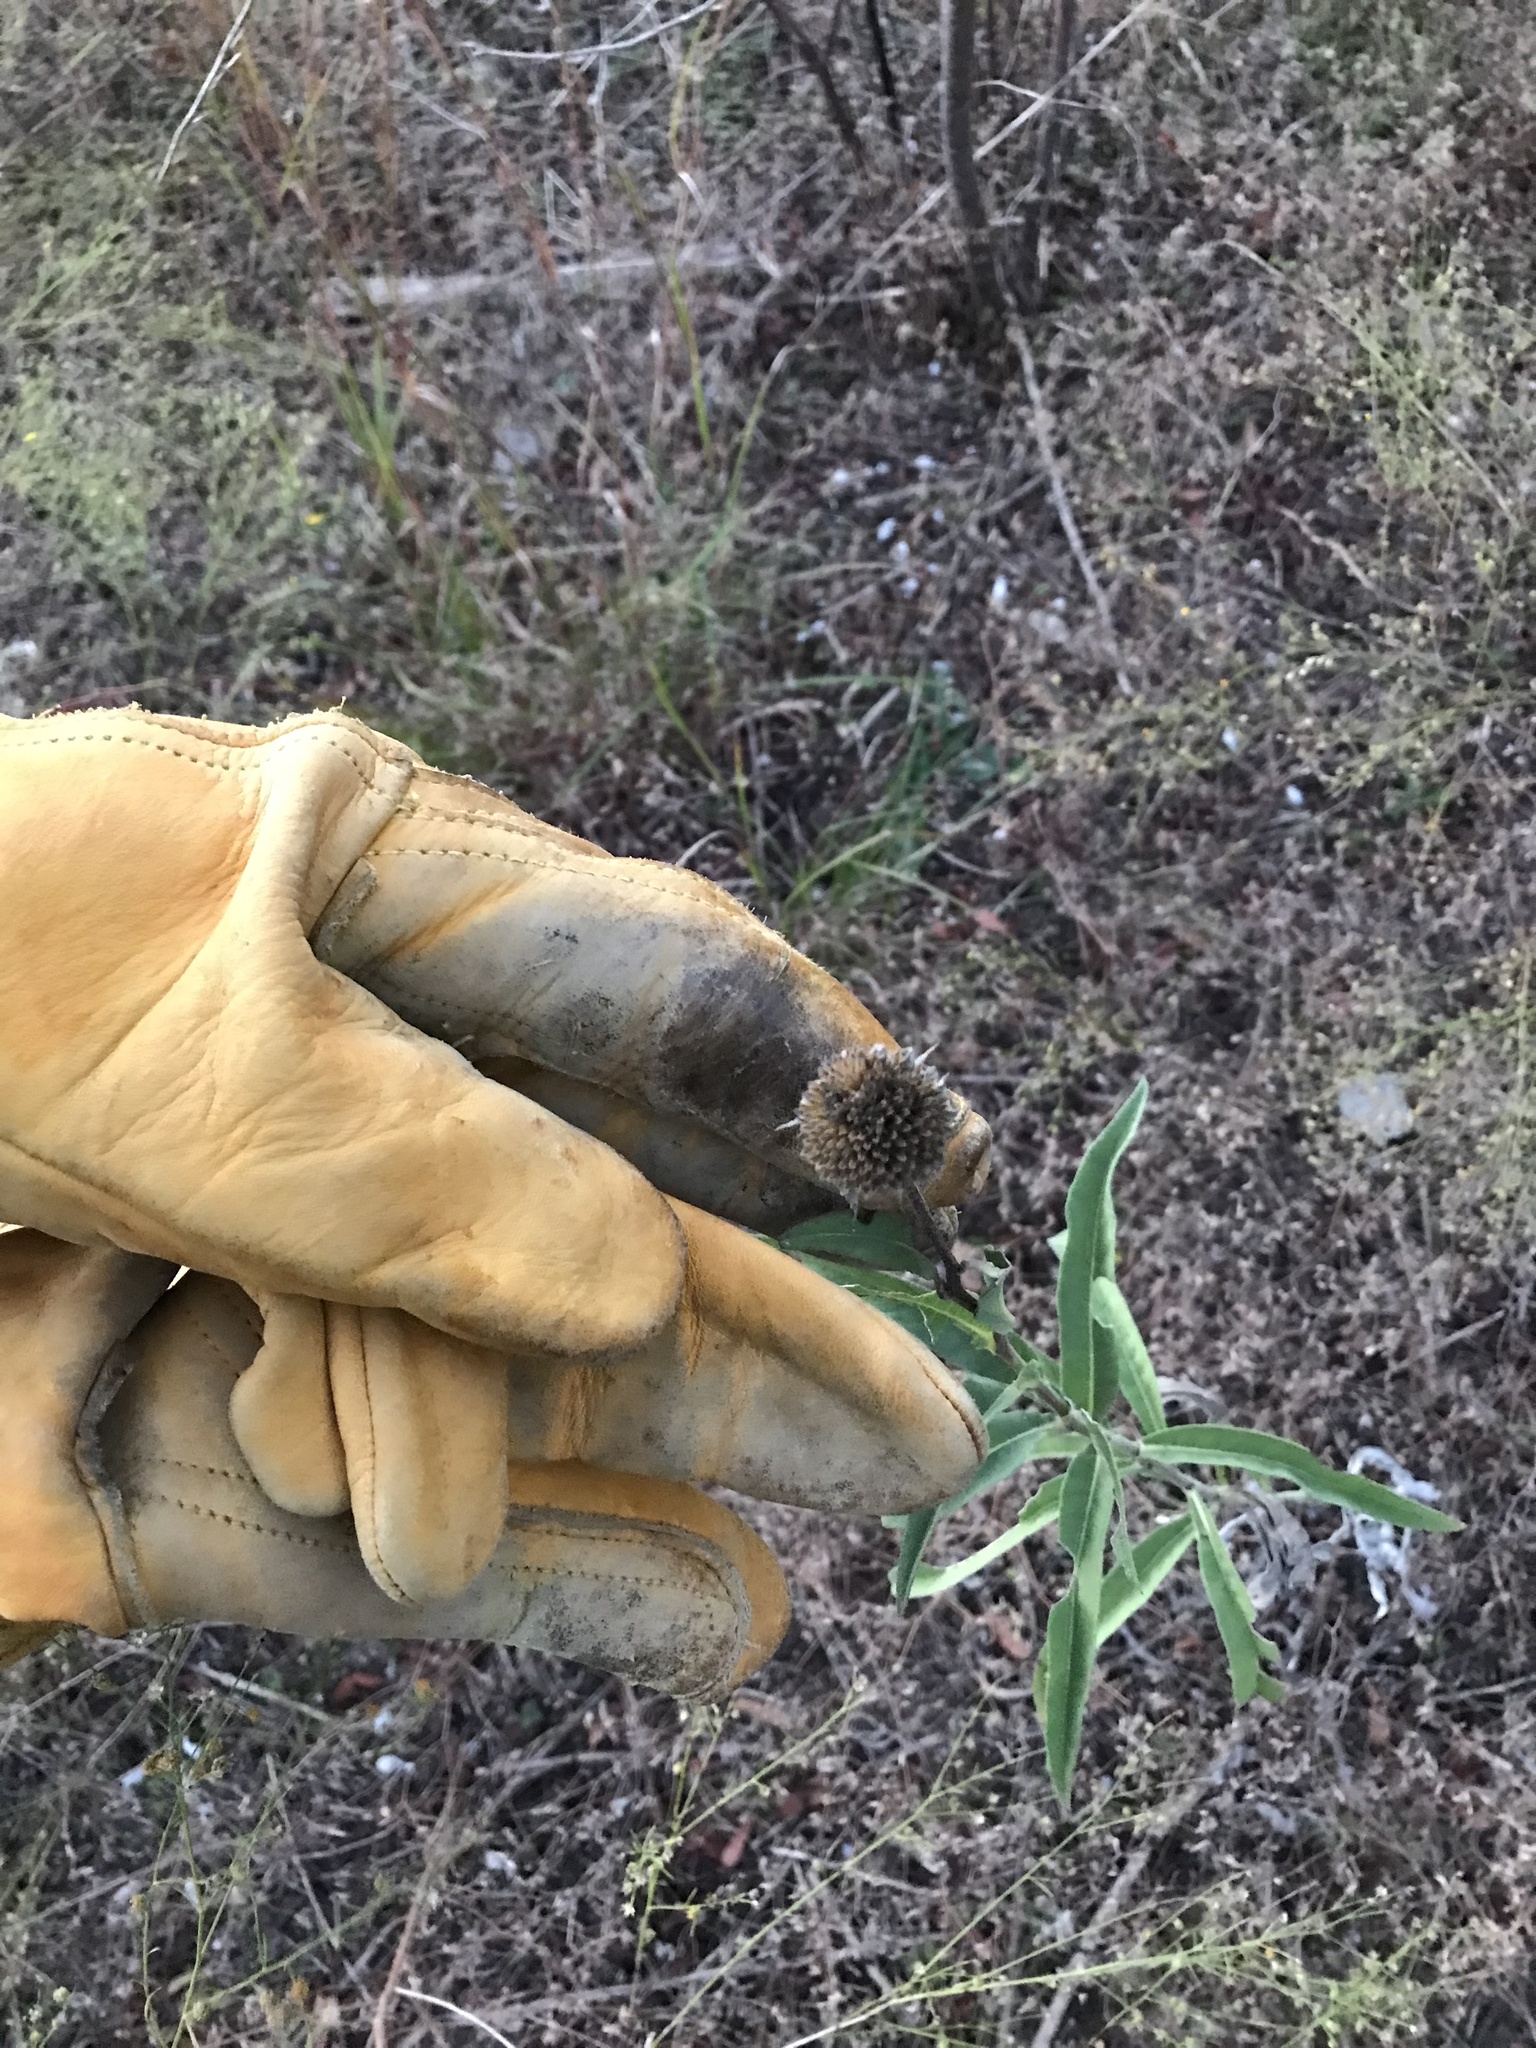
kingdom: Plantae
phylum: Tracheophyta
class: Magnoliopsida
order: Asterales
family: Asteraceae
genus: Helianthus
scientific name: Helianthus maximiliani
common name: Maximilian's sunflower
